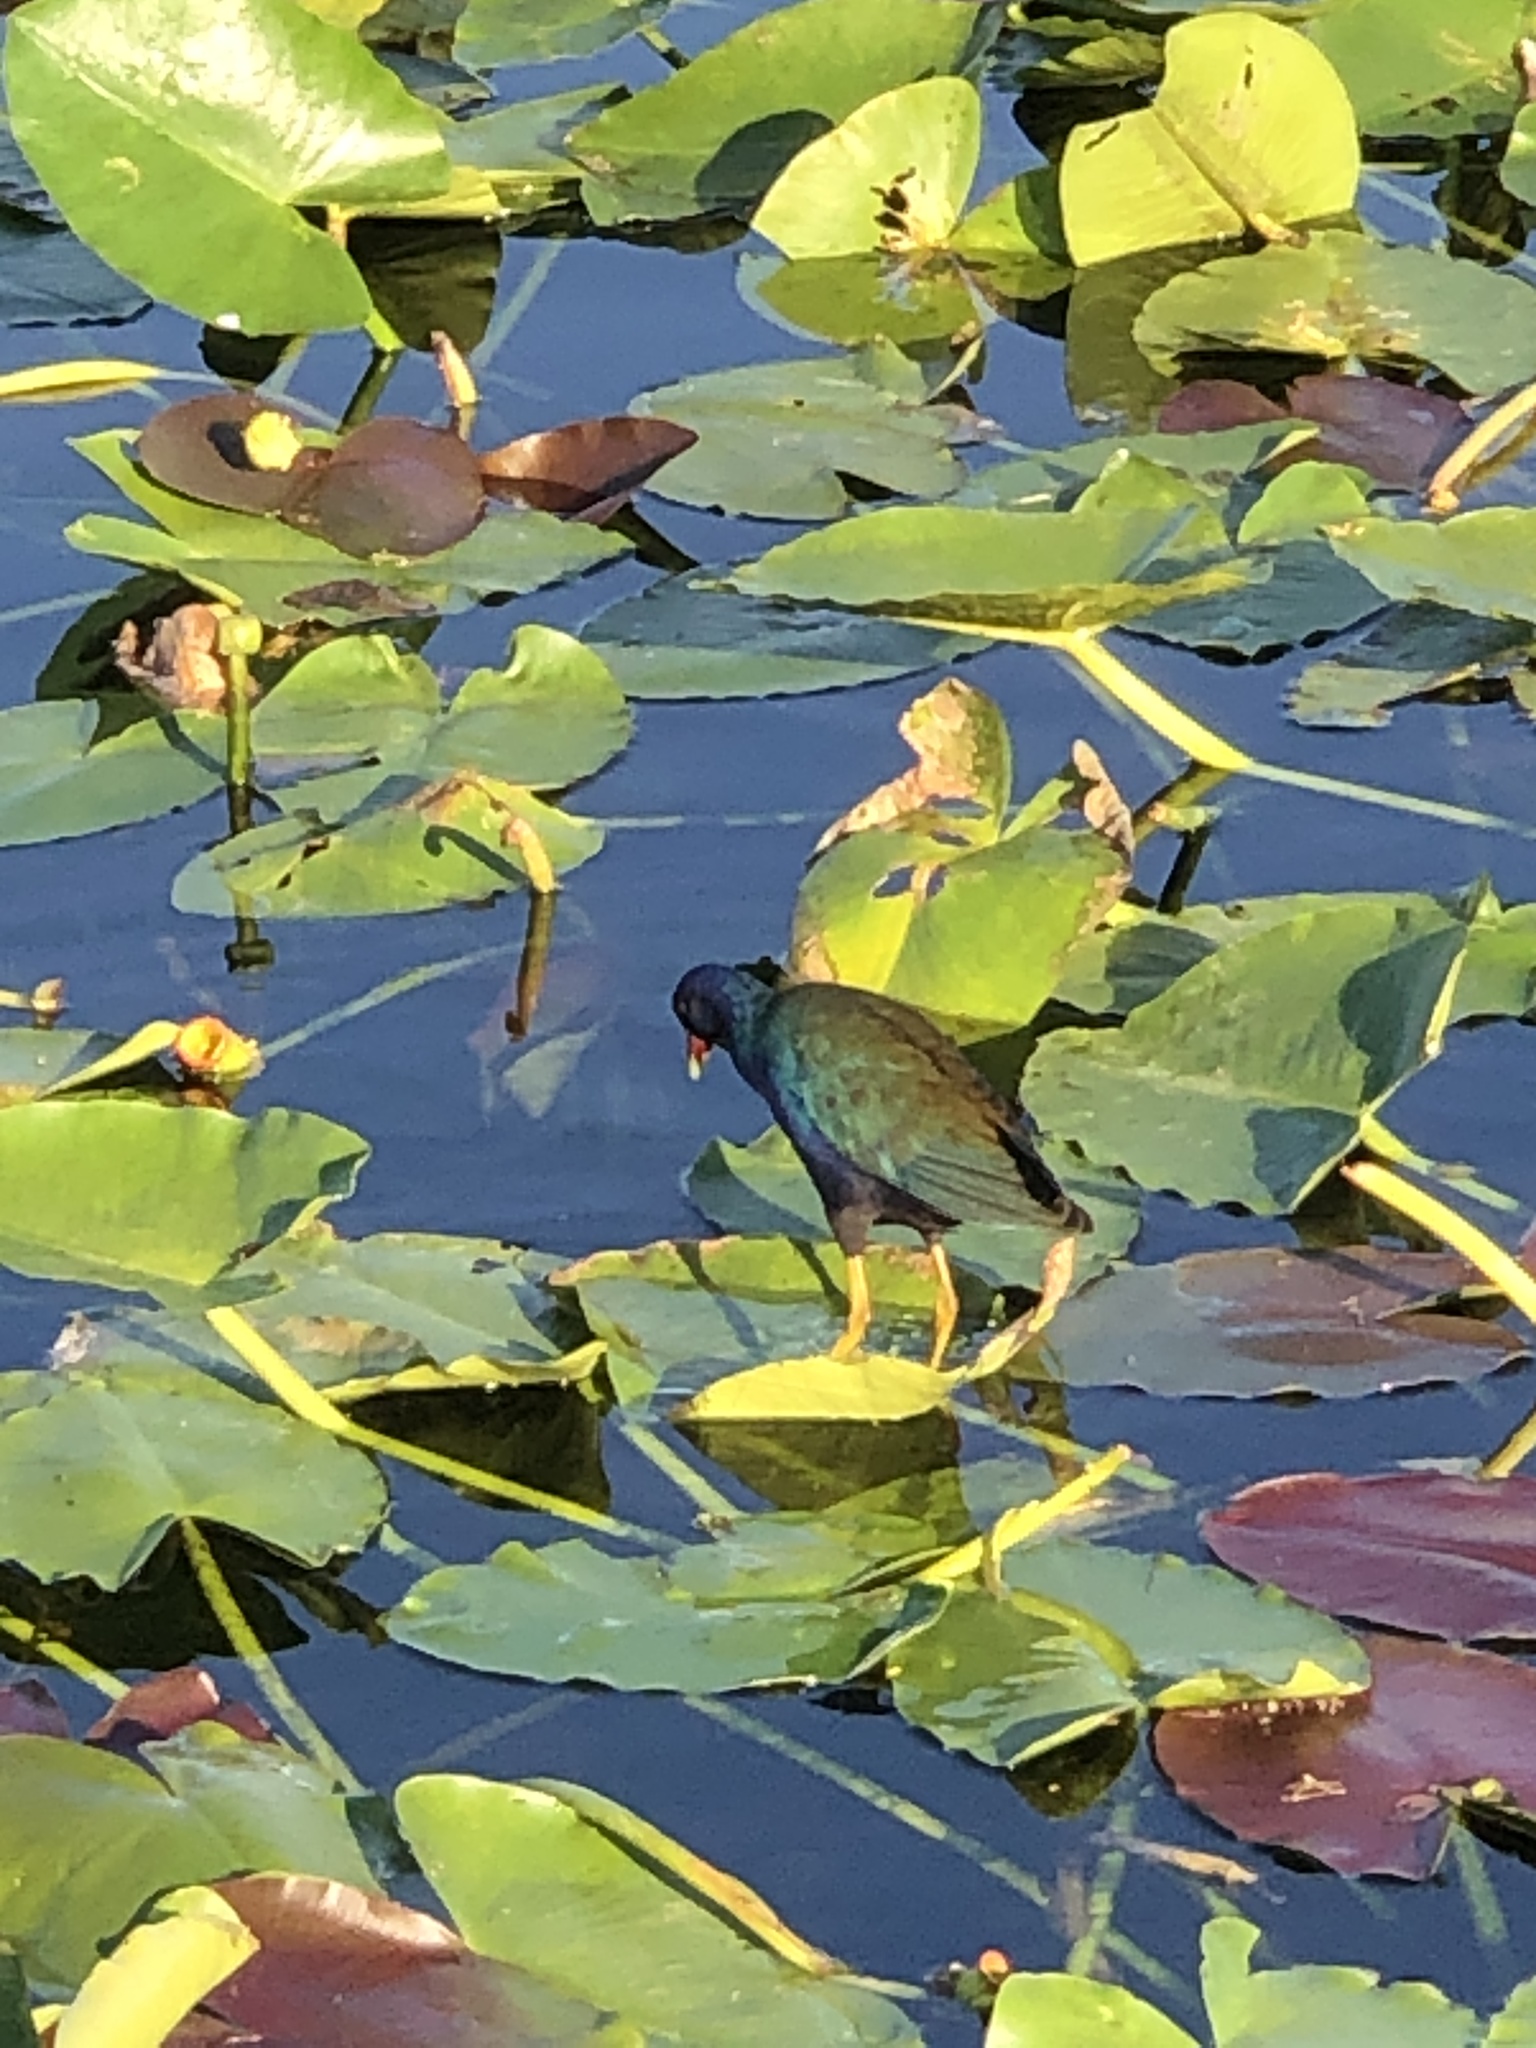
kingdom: Animalia
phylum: Chordata
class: Aves
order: Gruiformes
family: Rallidae
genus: Porphyrio
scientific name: Porphyrio martinica
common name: Purple gallinule
